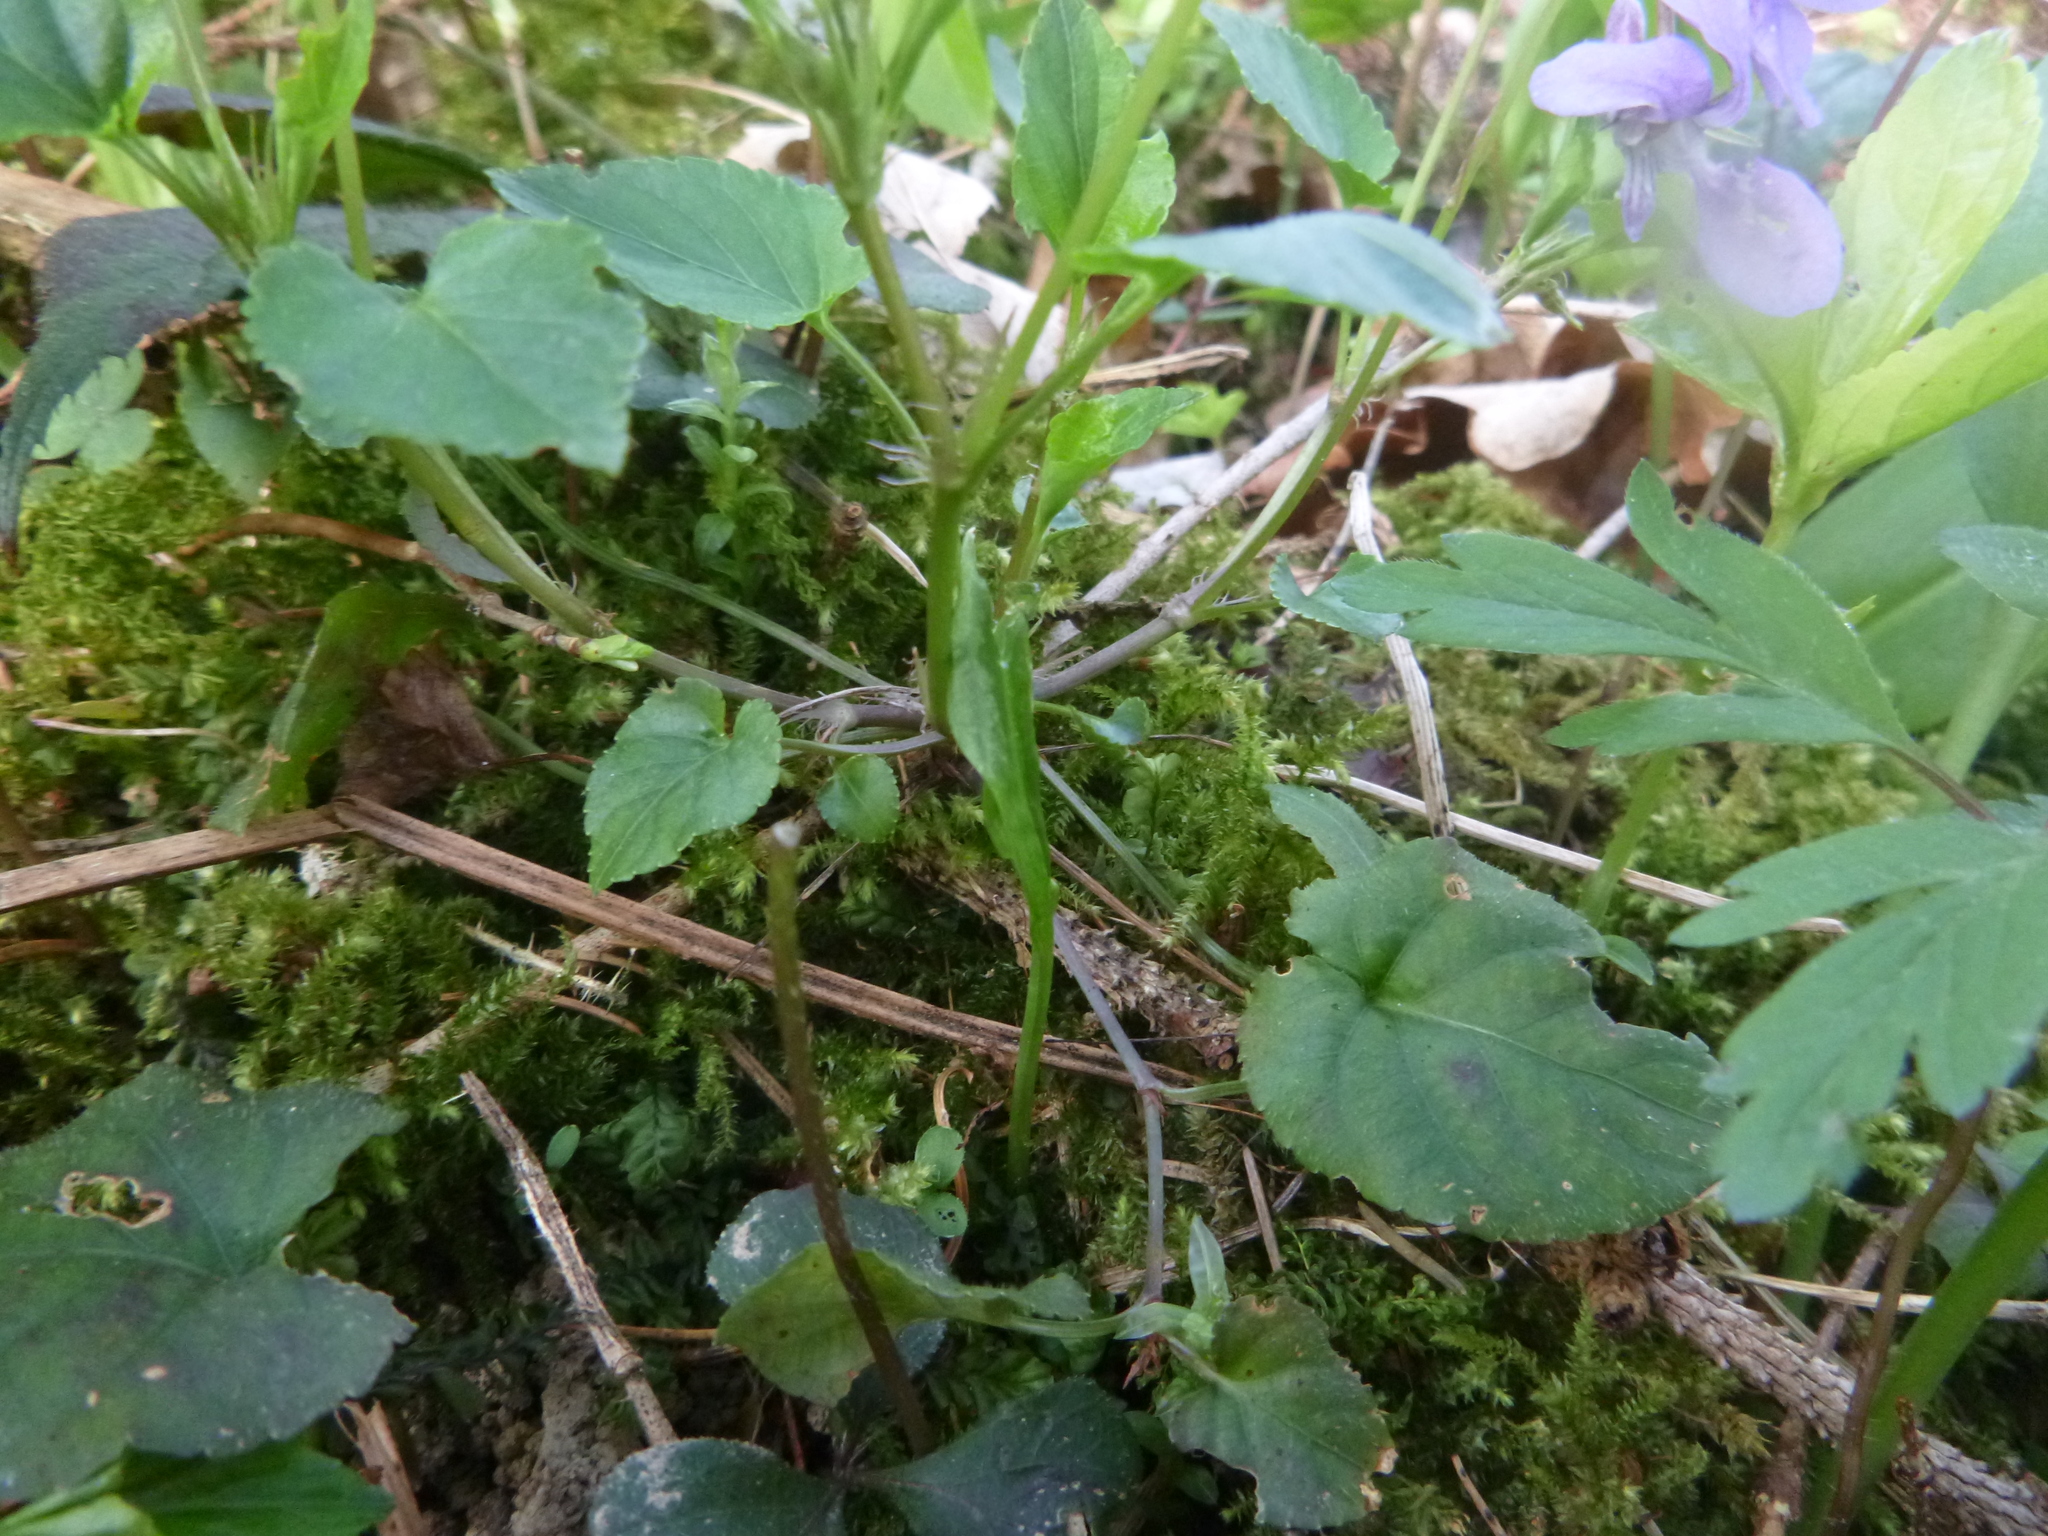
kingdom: Plantae
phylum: Tracheophyta
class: Magnoliopsida
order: Malpighiales
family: Violaceae
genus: Viola
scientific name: Viola reichenbachiana
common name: Early dog-violet
